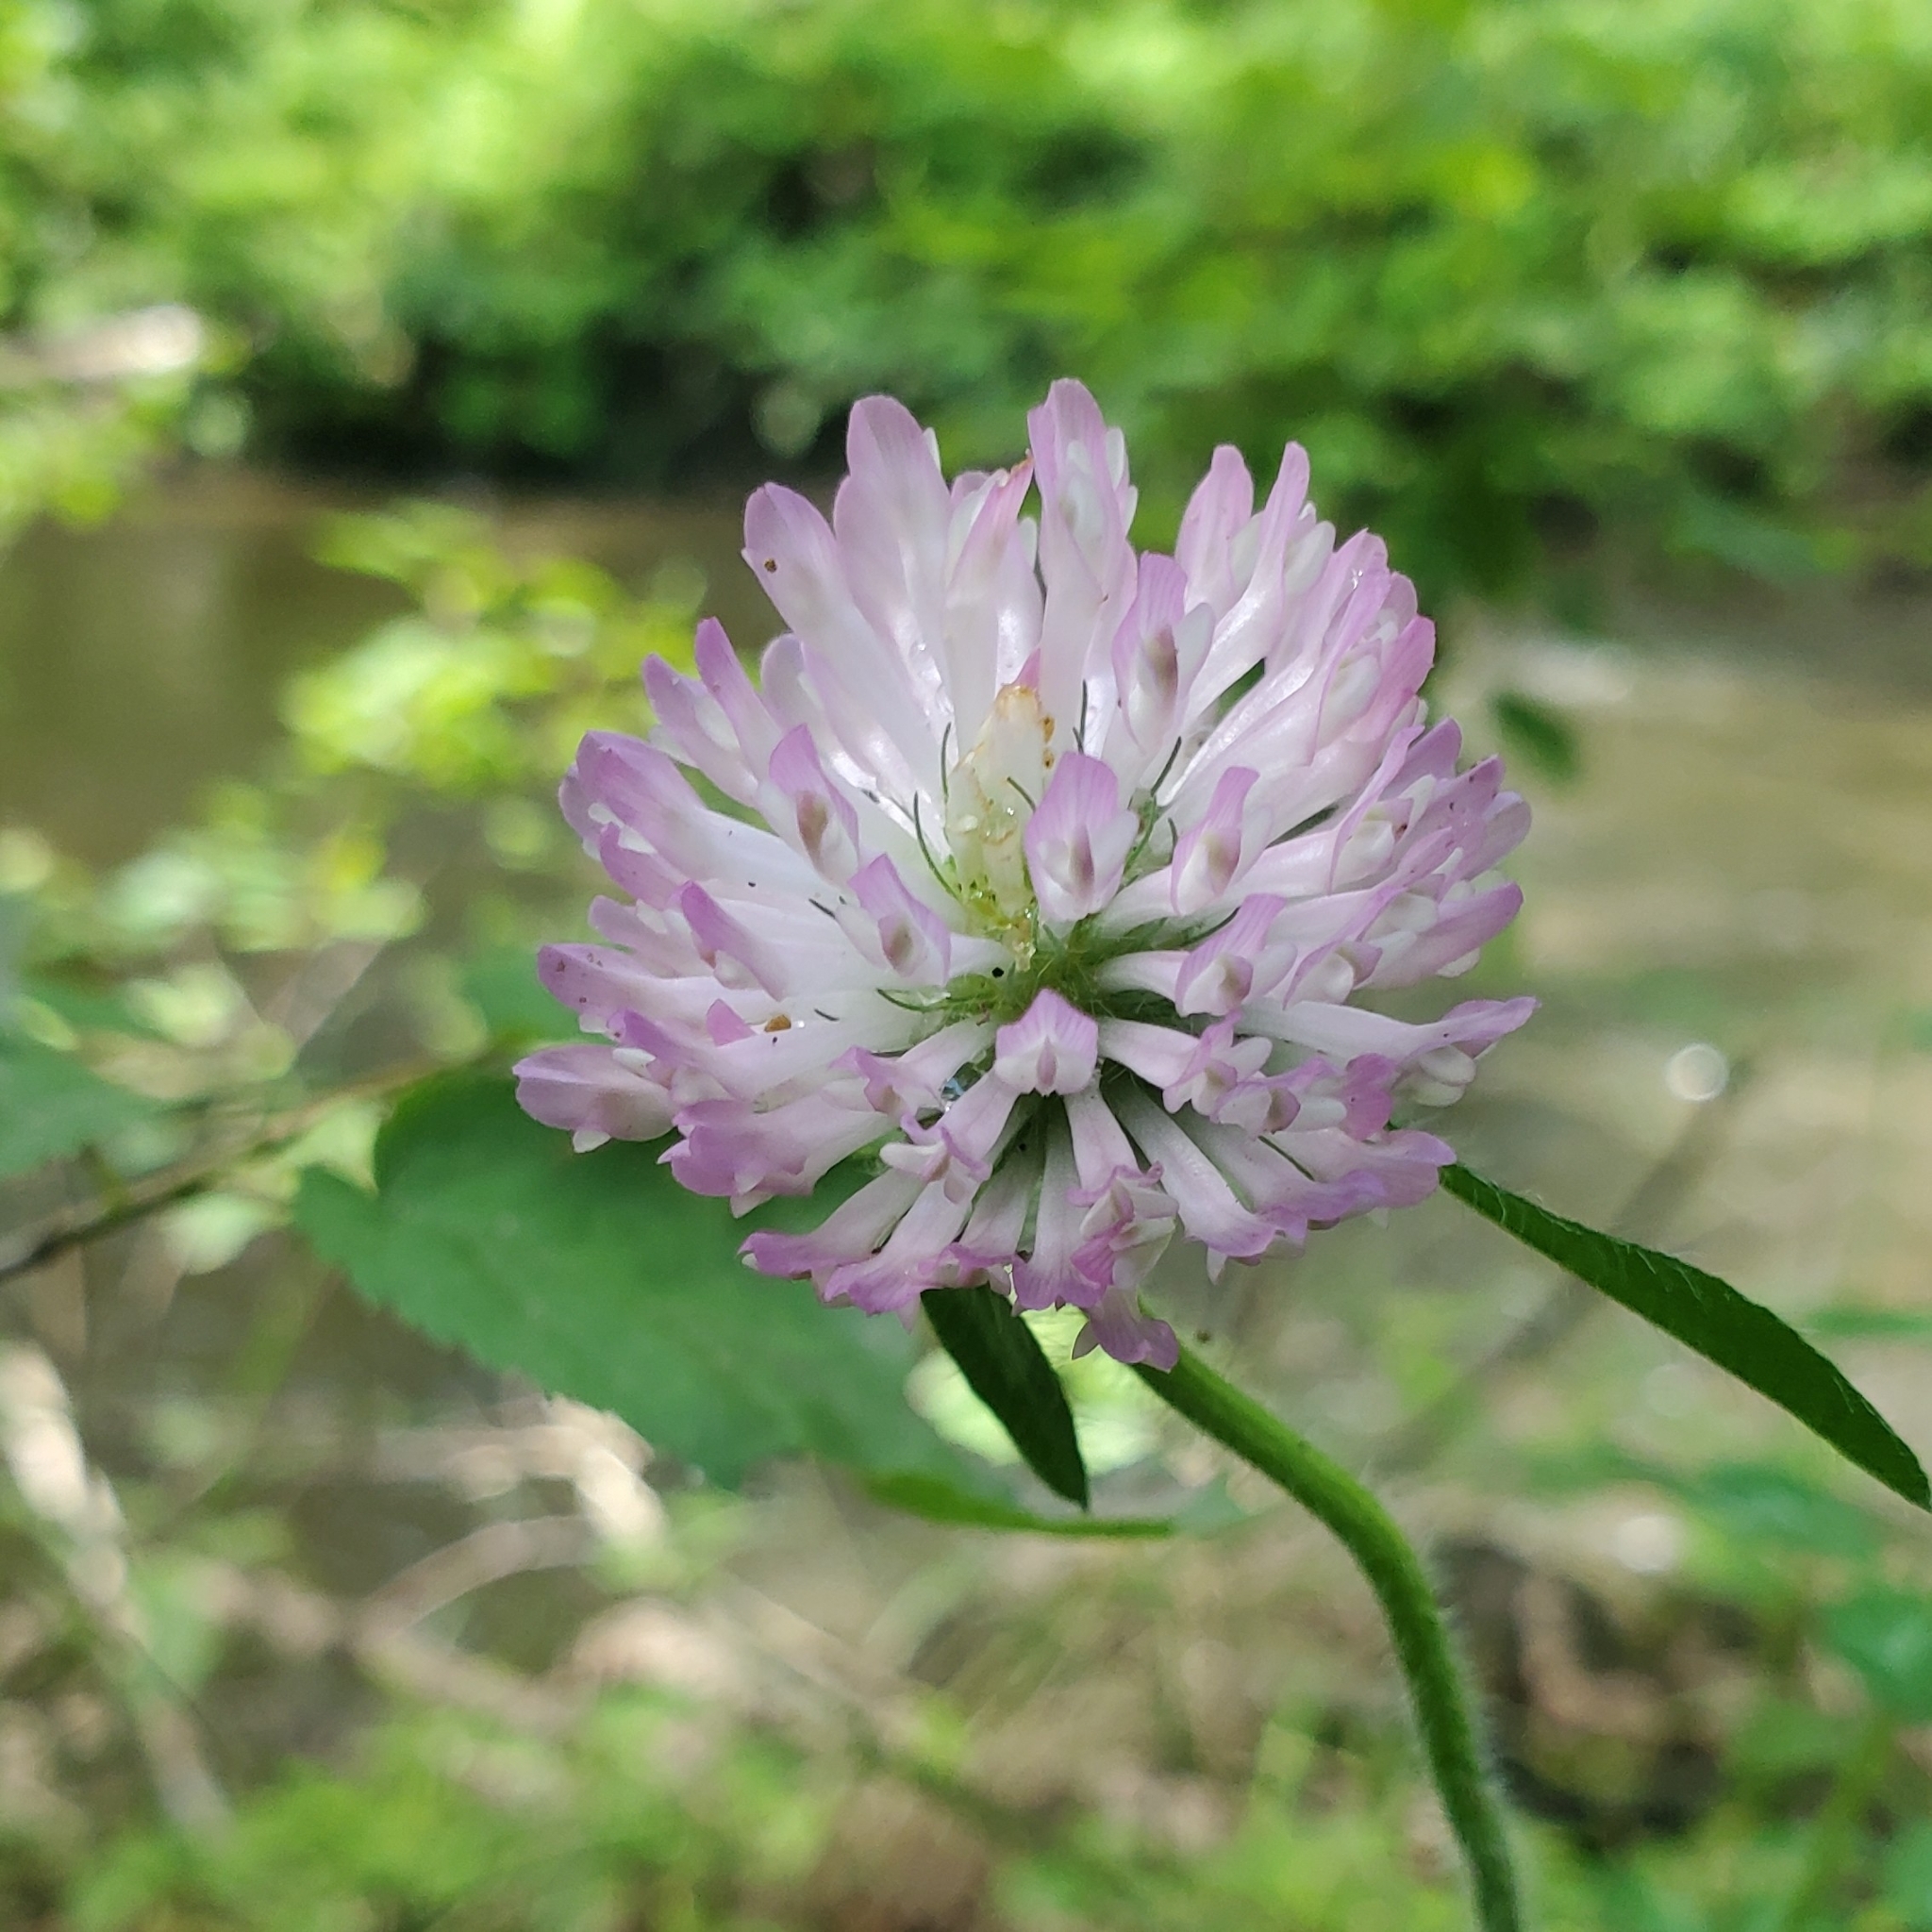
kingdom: Plantae
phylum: Tracheophyta
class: Magnoliopsida
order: Fabales
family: Fabaceae
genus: Trifolium
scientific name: Trifolium pratense
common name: Red clover
